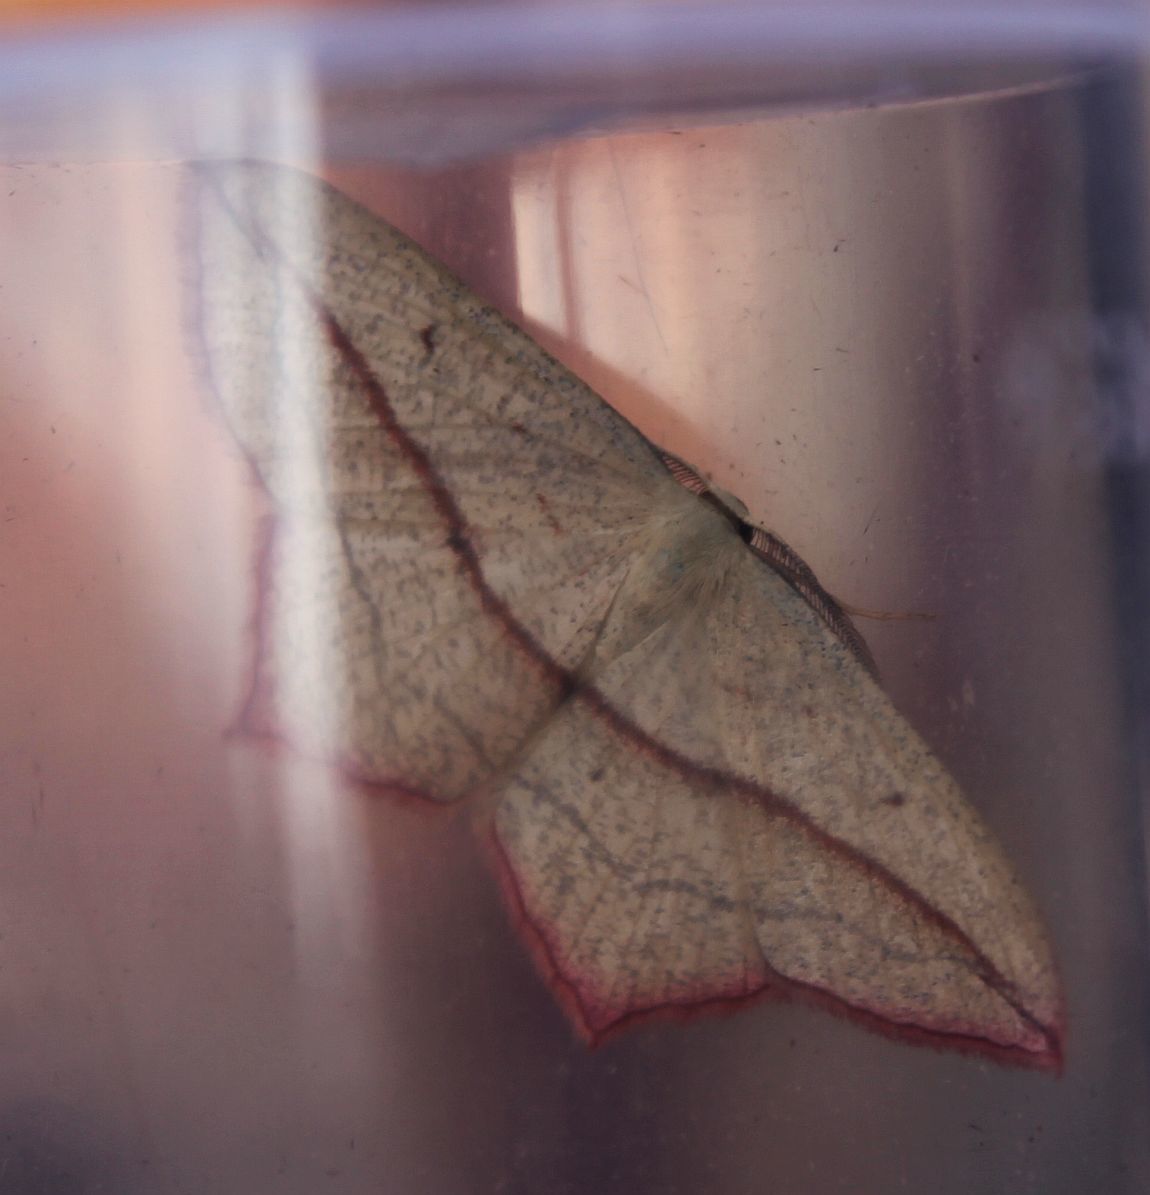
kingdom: Animalia
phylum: Arthropoda
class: Insecta
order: Lepidoptera
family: Geometridae
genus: Timandra
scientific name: Timandra comae
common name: Blood-vein
